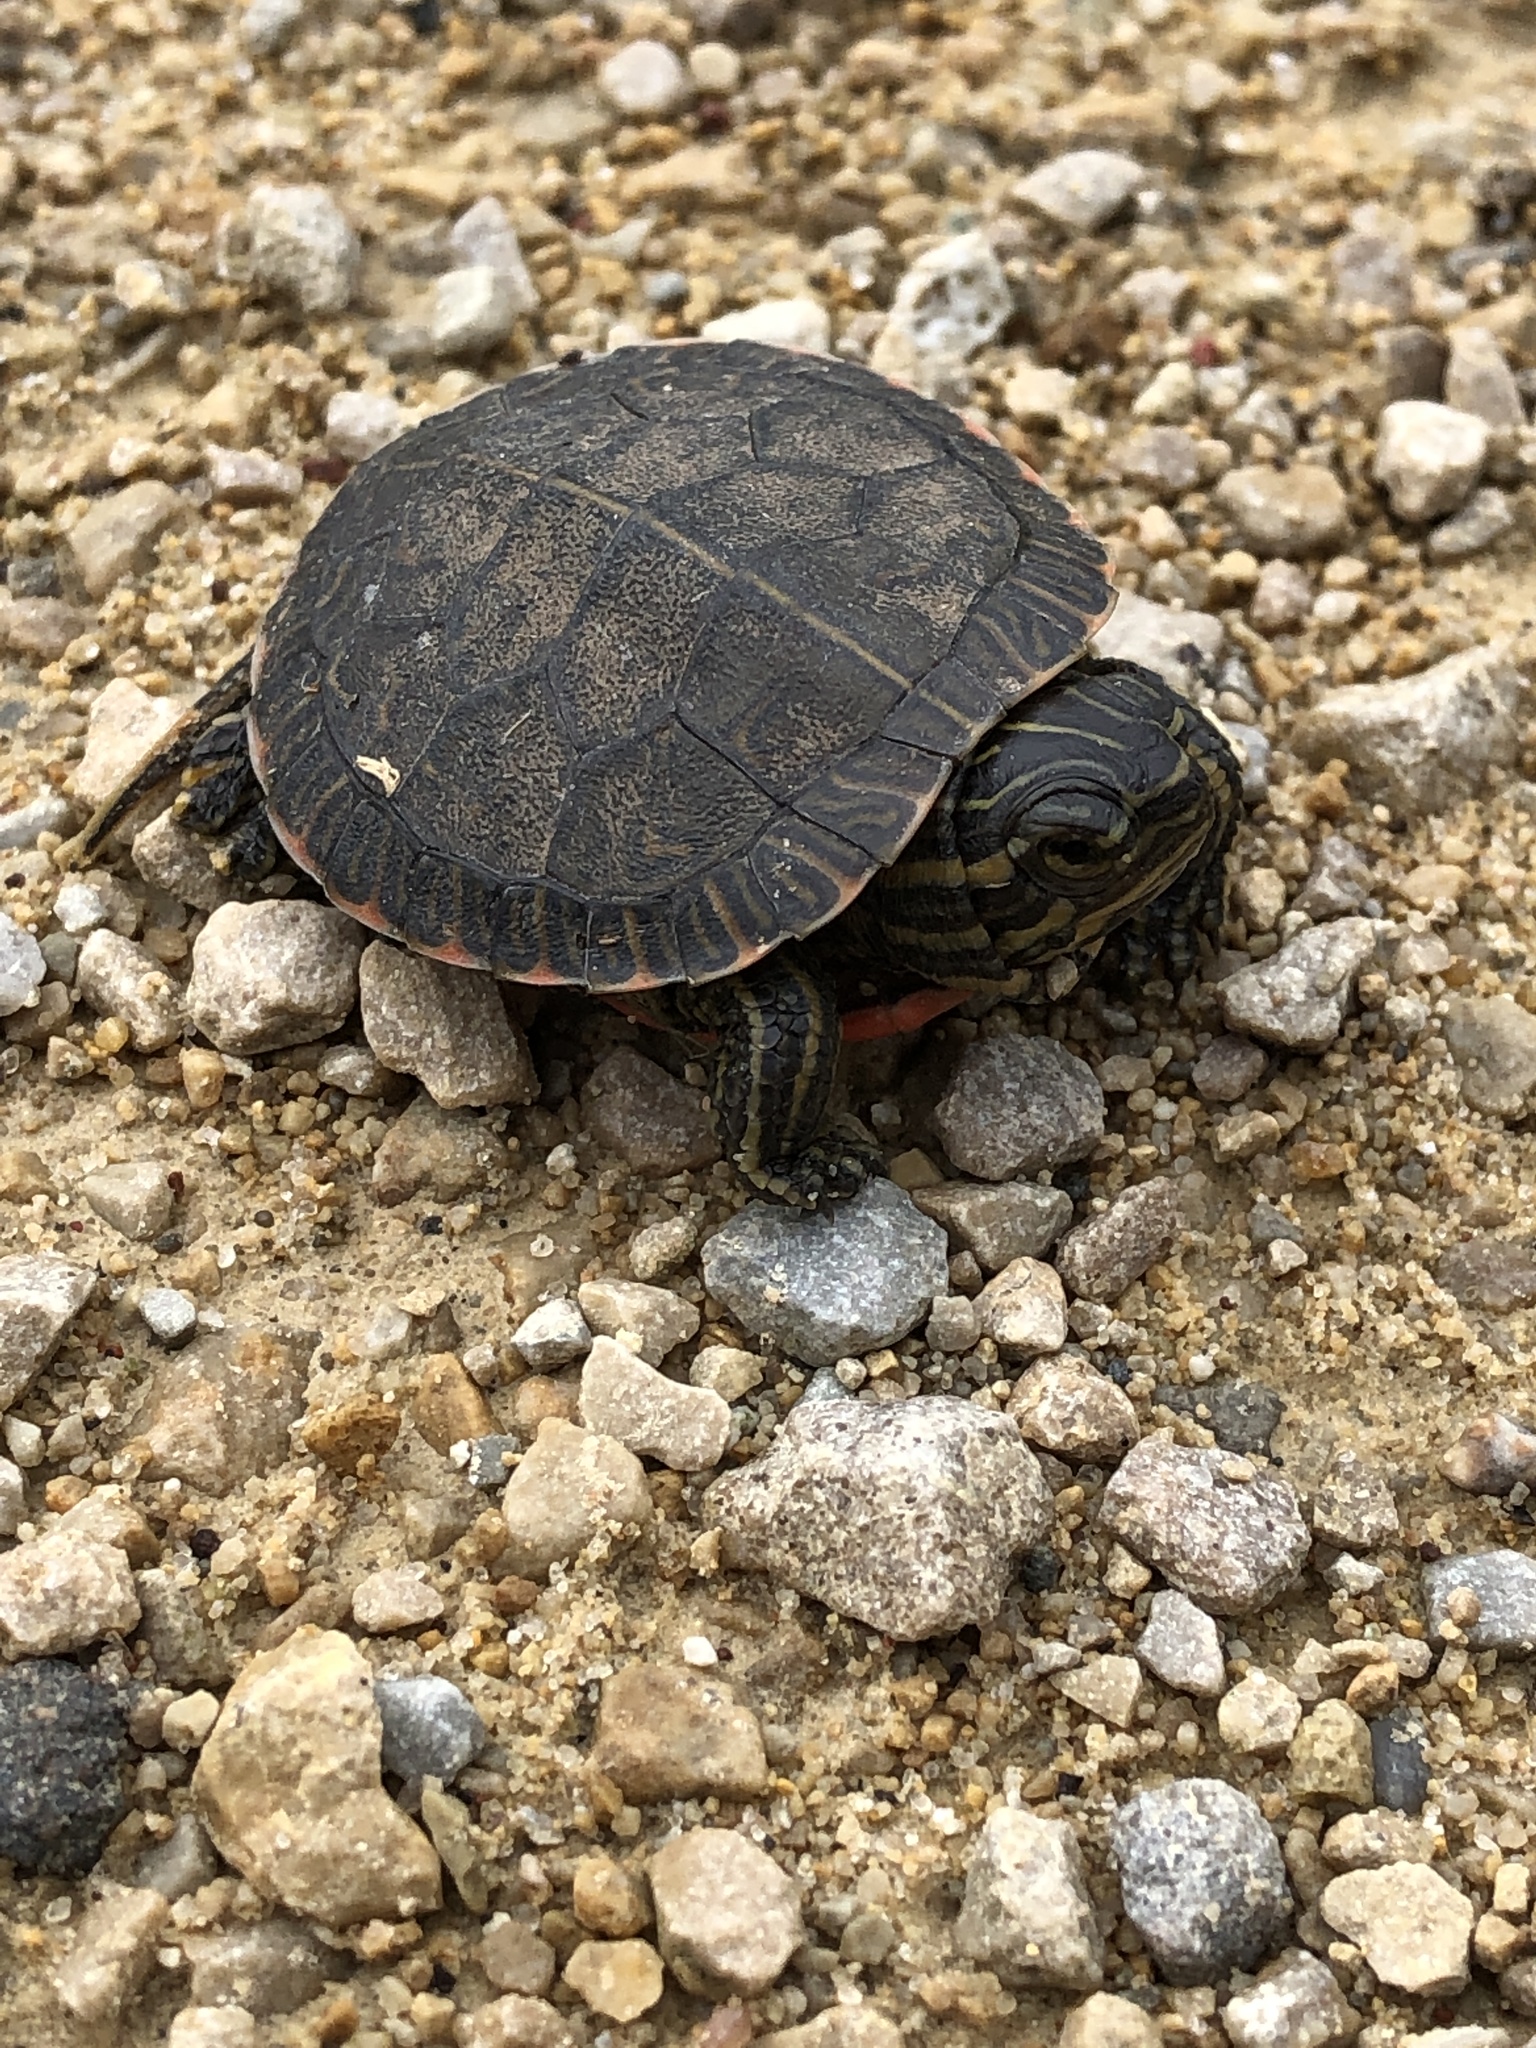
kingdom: Animalia
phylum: Chordata
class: Testudines
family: Emydidae
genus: Chrysemys
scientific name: Chrysemys picta
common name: Painted turtle
